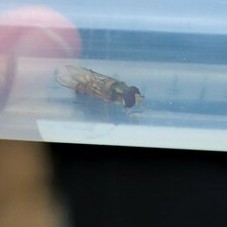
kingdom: Animalia
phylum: Arthropoda
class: Insecta
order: Diptera
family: Syrphidae
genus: Episyrphus
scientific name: Episyrphus balteatus
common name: Marmalade hoverfly
